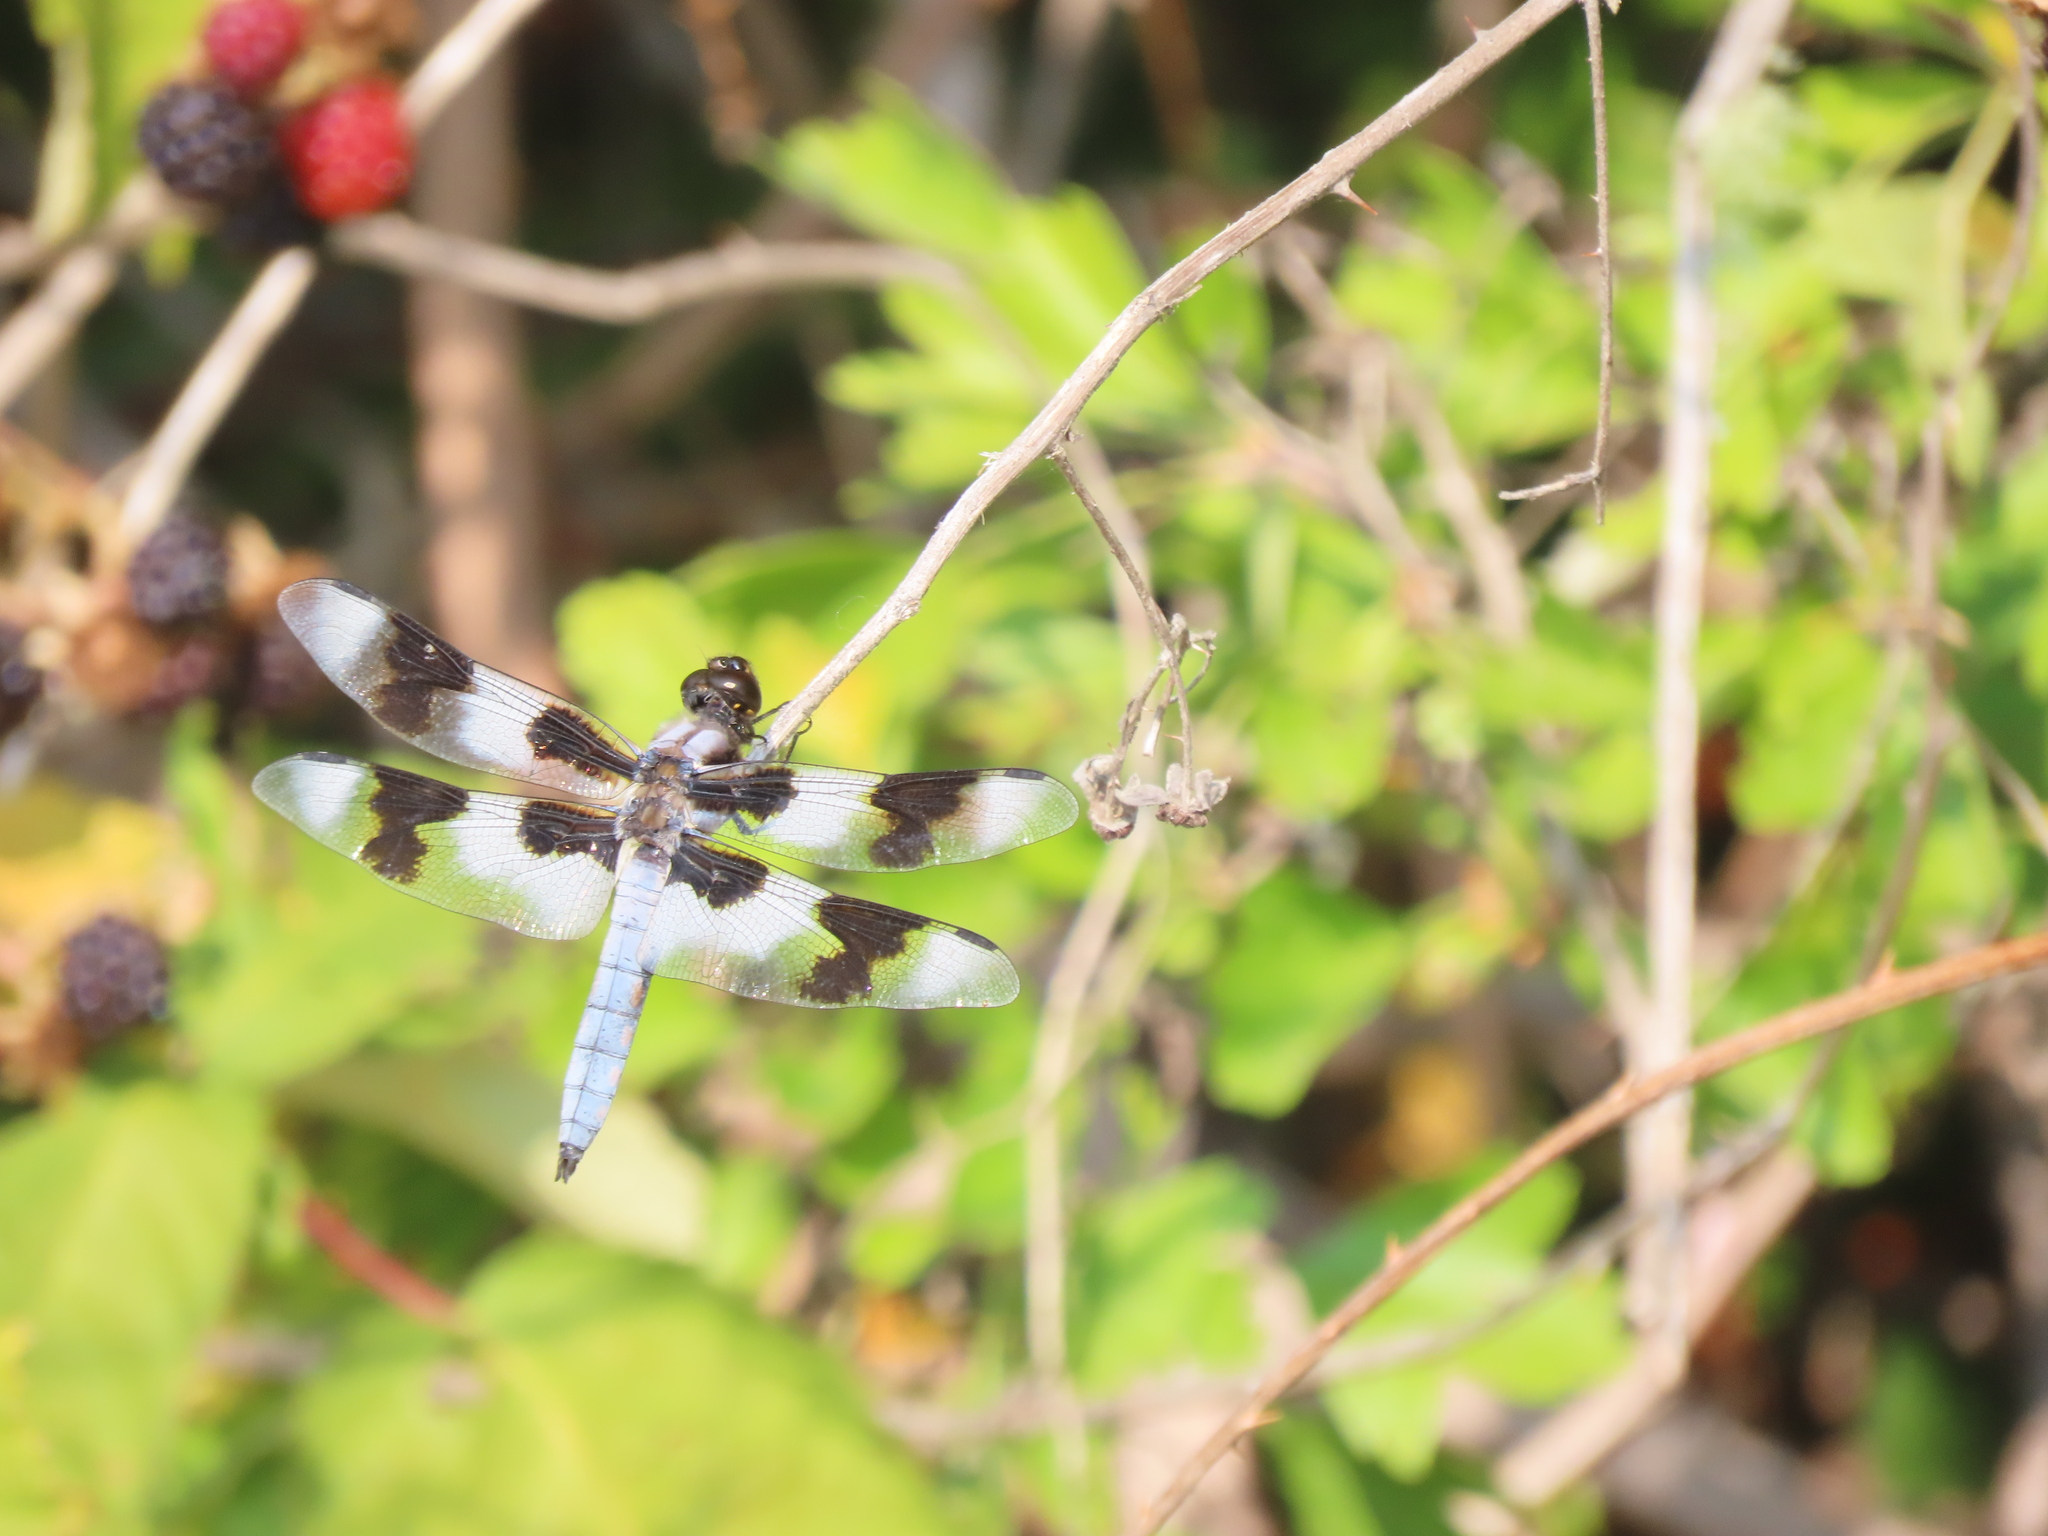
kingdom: Animalia
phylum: Arthropoda
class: Insecta
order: Odonata
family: Libellulidae
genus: Libellula
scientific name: Libellula forensis
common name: Eight-spotted skimmer
